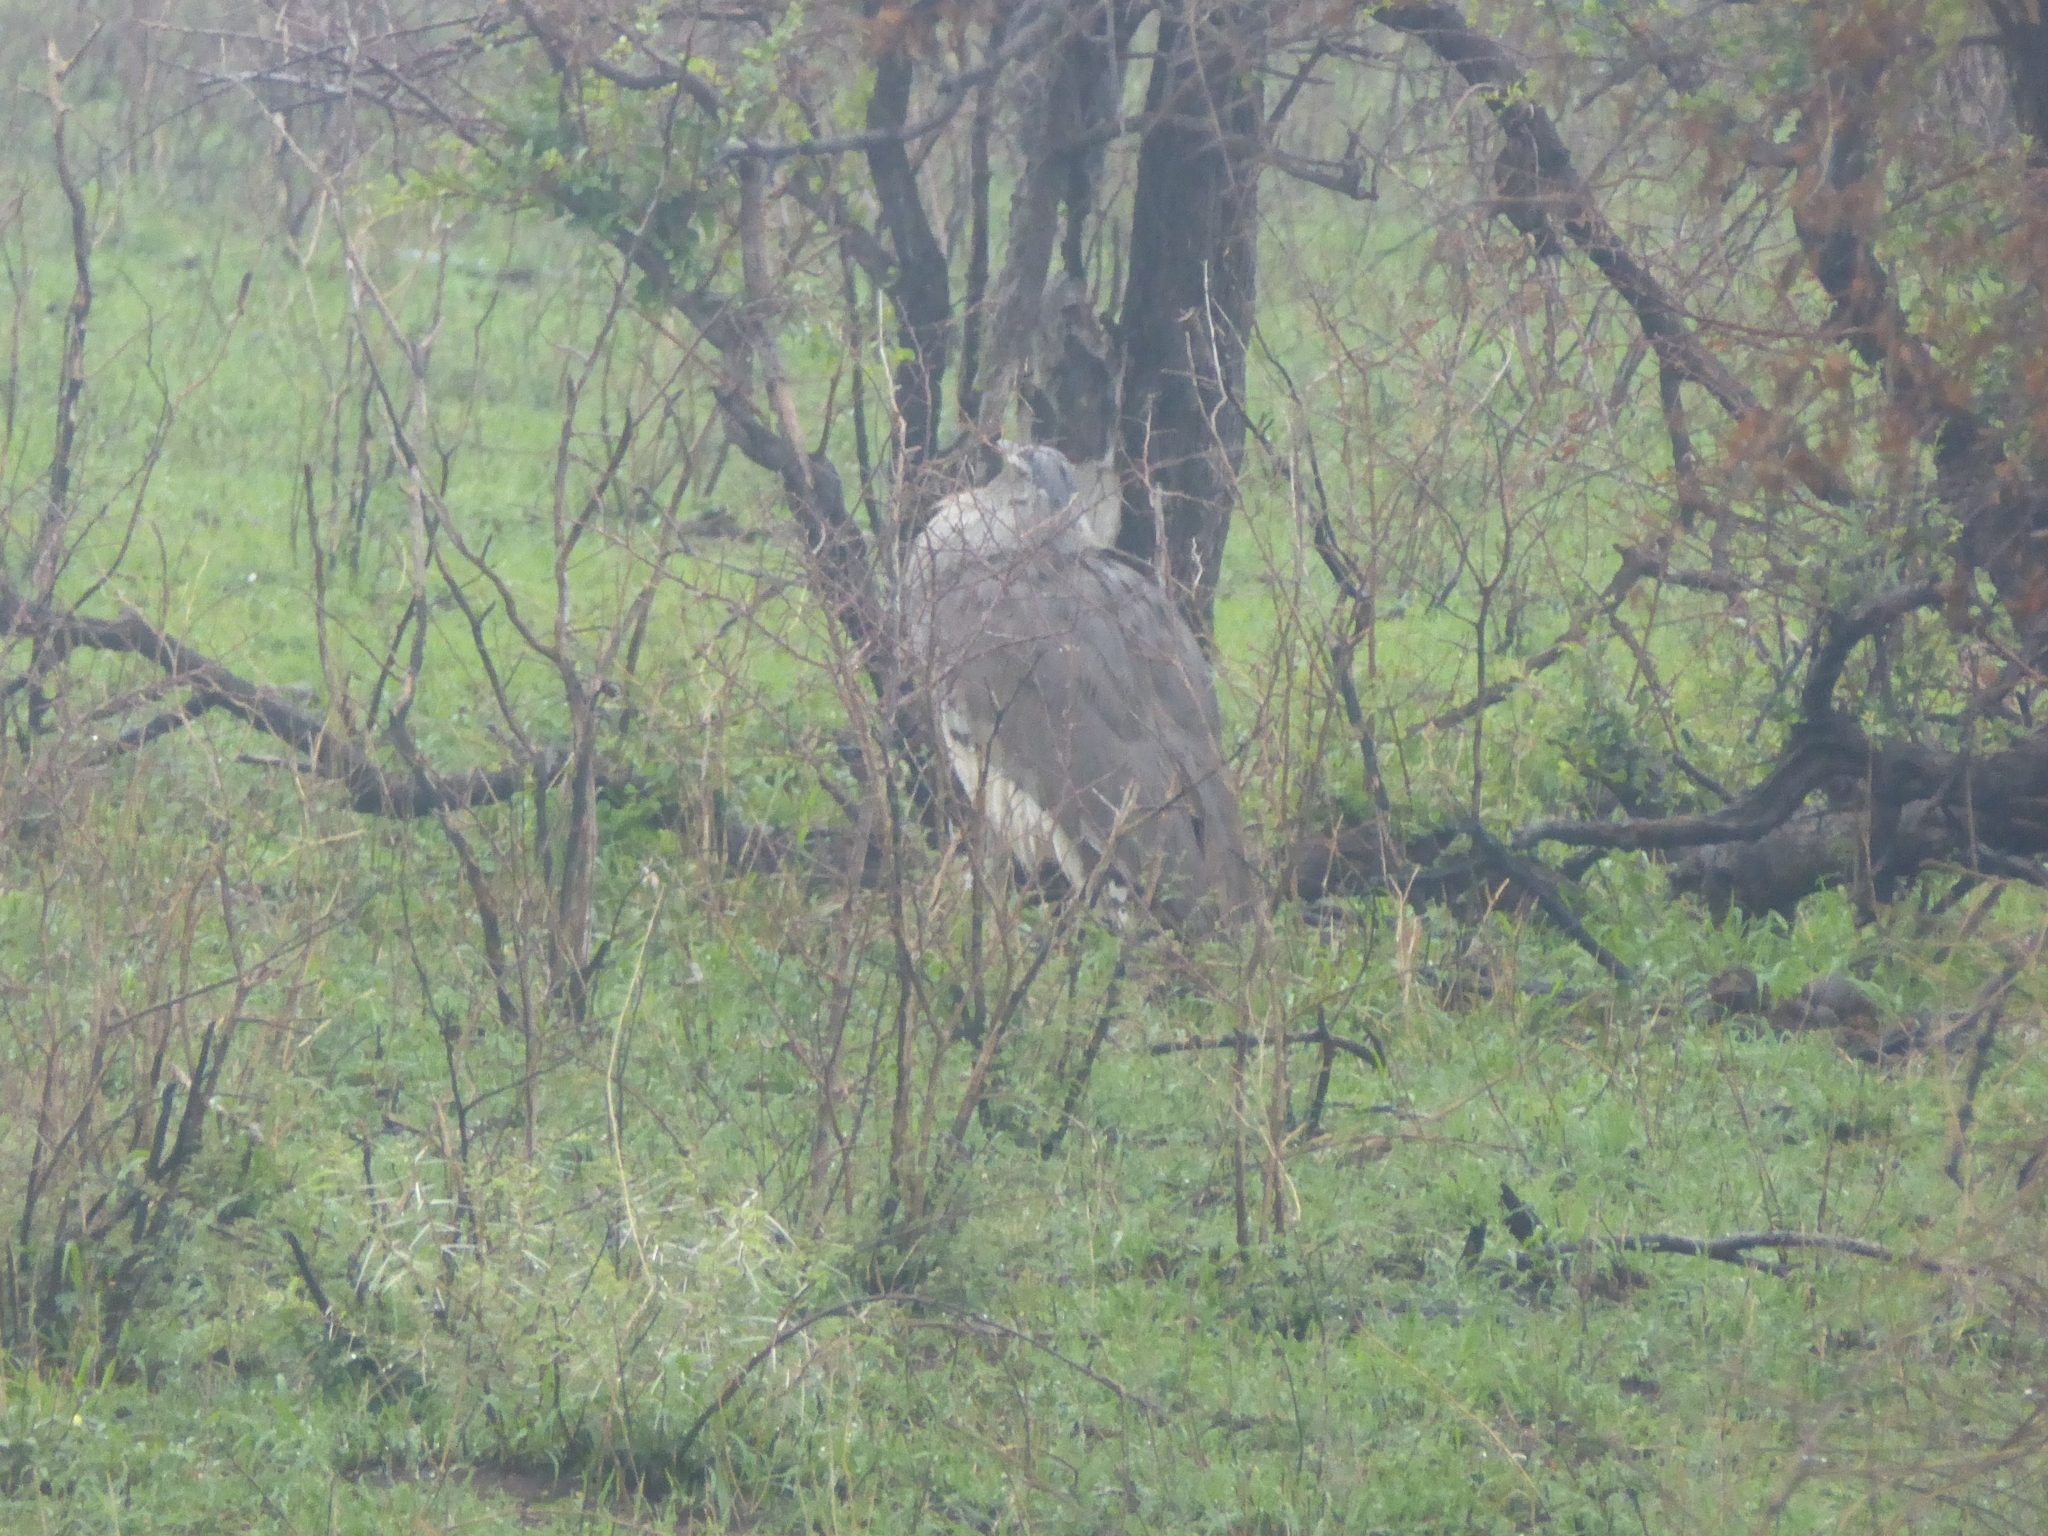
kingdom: Animalia
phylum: Chordata
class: Aves
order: Otidiformes
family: Otididae
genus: Ardeotis
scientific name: Ardeotis kori
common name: Kori bustard
